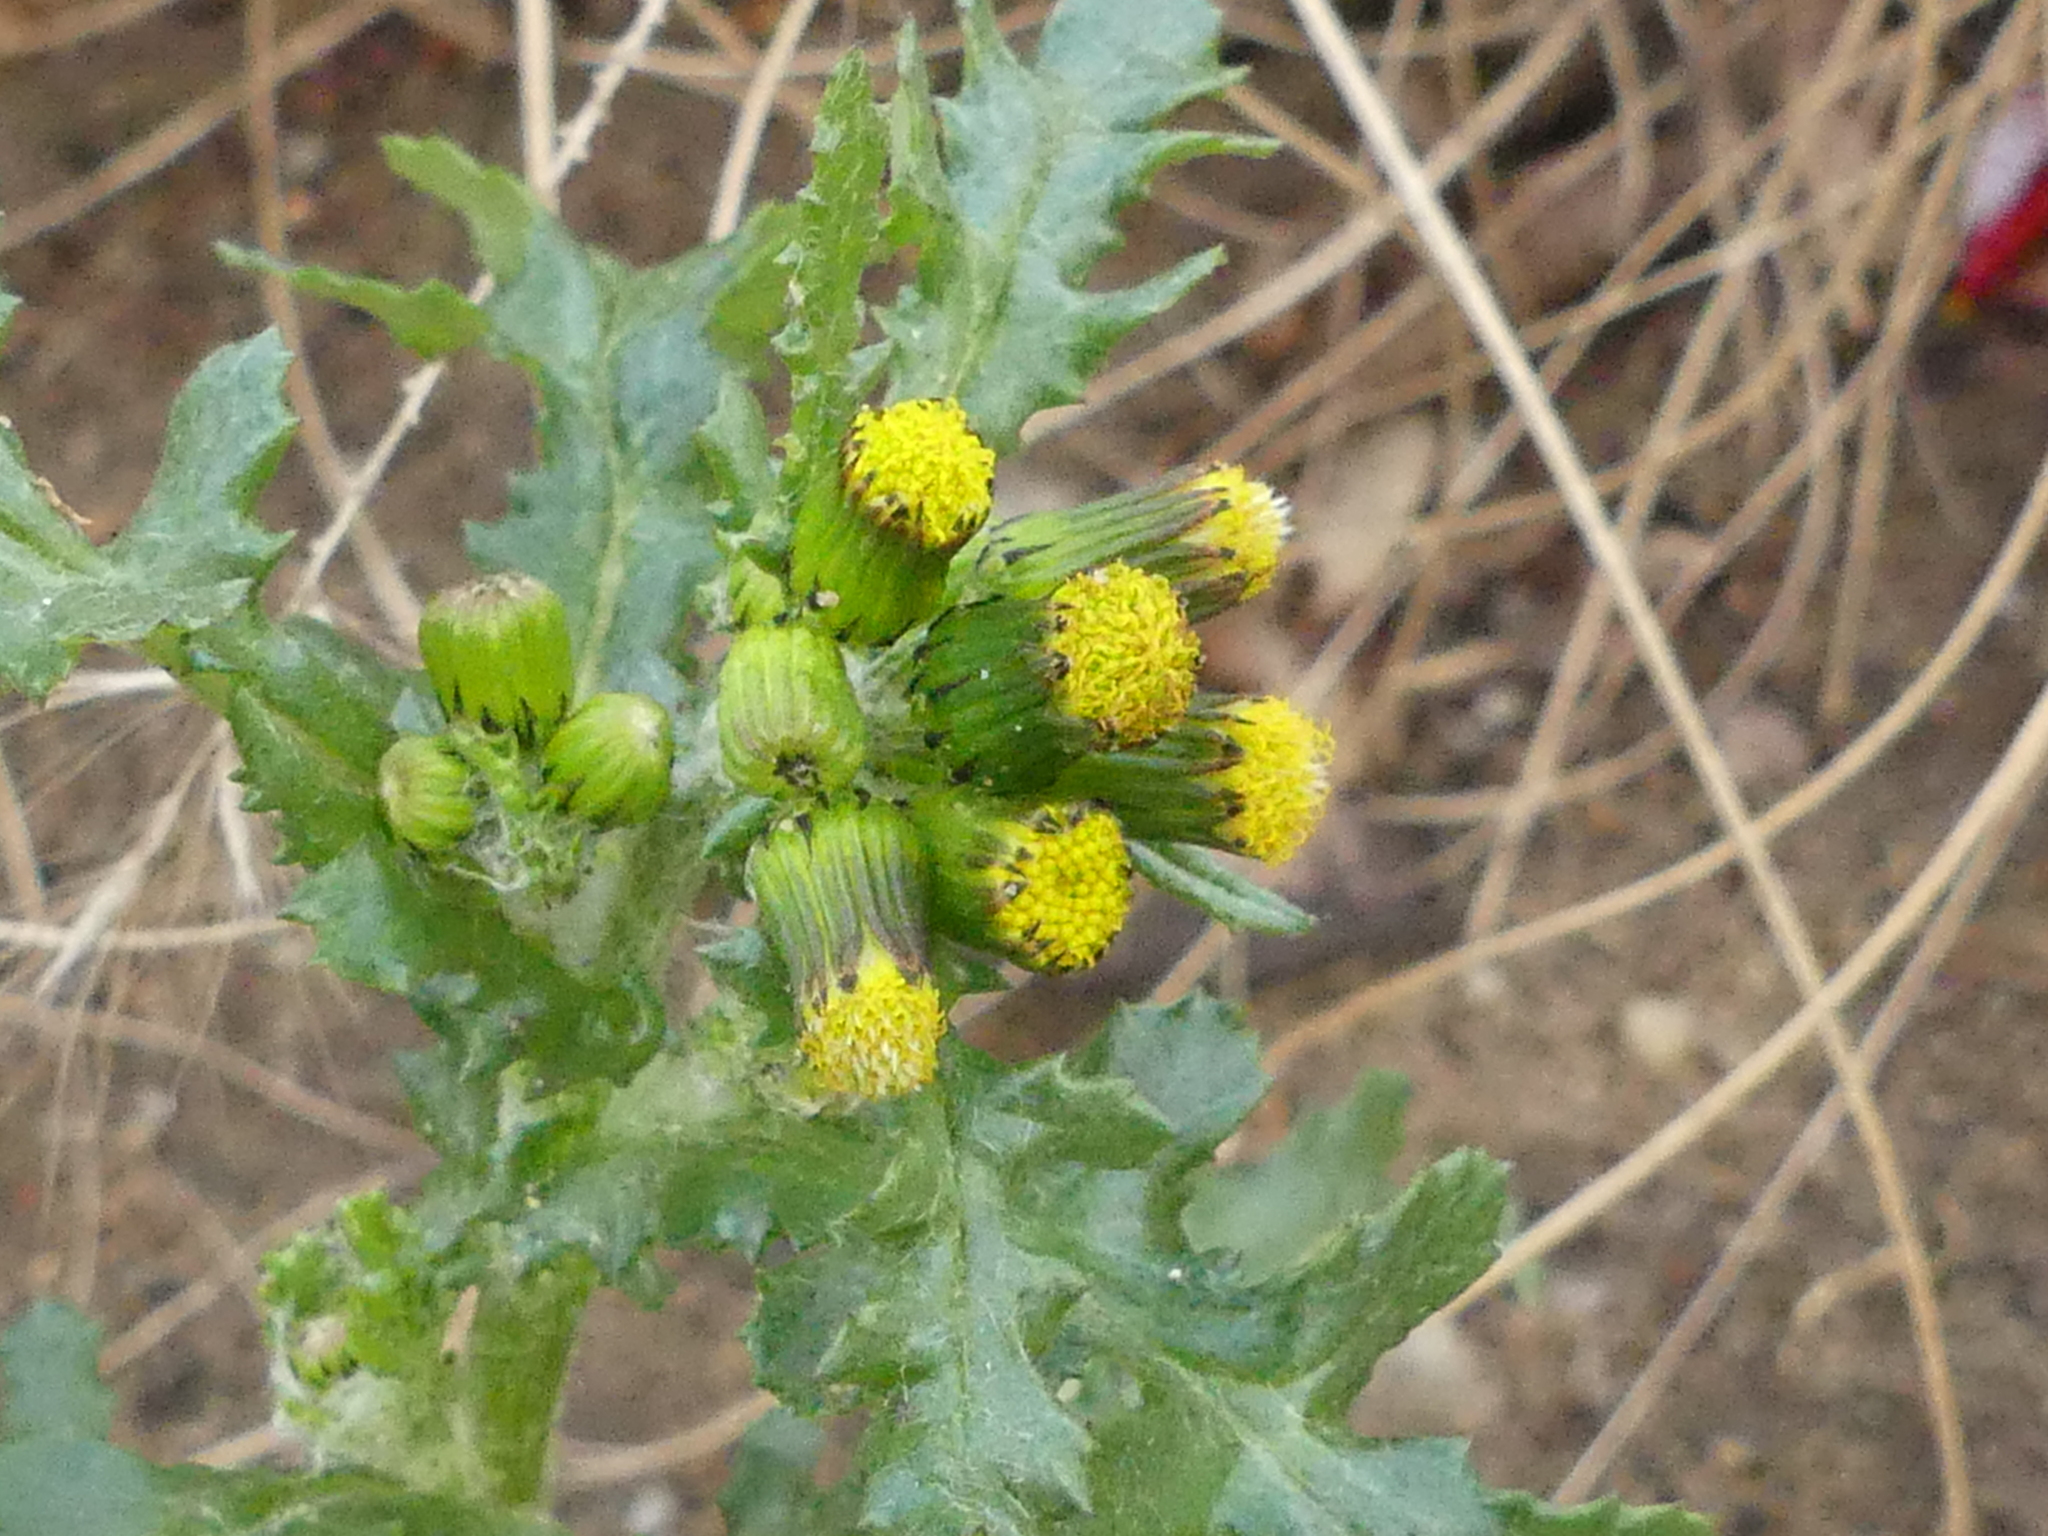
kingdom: Plantae
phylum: Tracheophyta
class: Magnoliopsida
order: Asterales
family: Asteraceae
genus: Senecio
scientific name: Senecio vulgaris
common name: Old-man-in-the-spring
